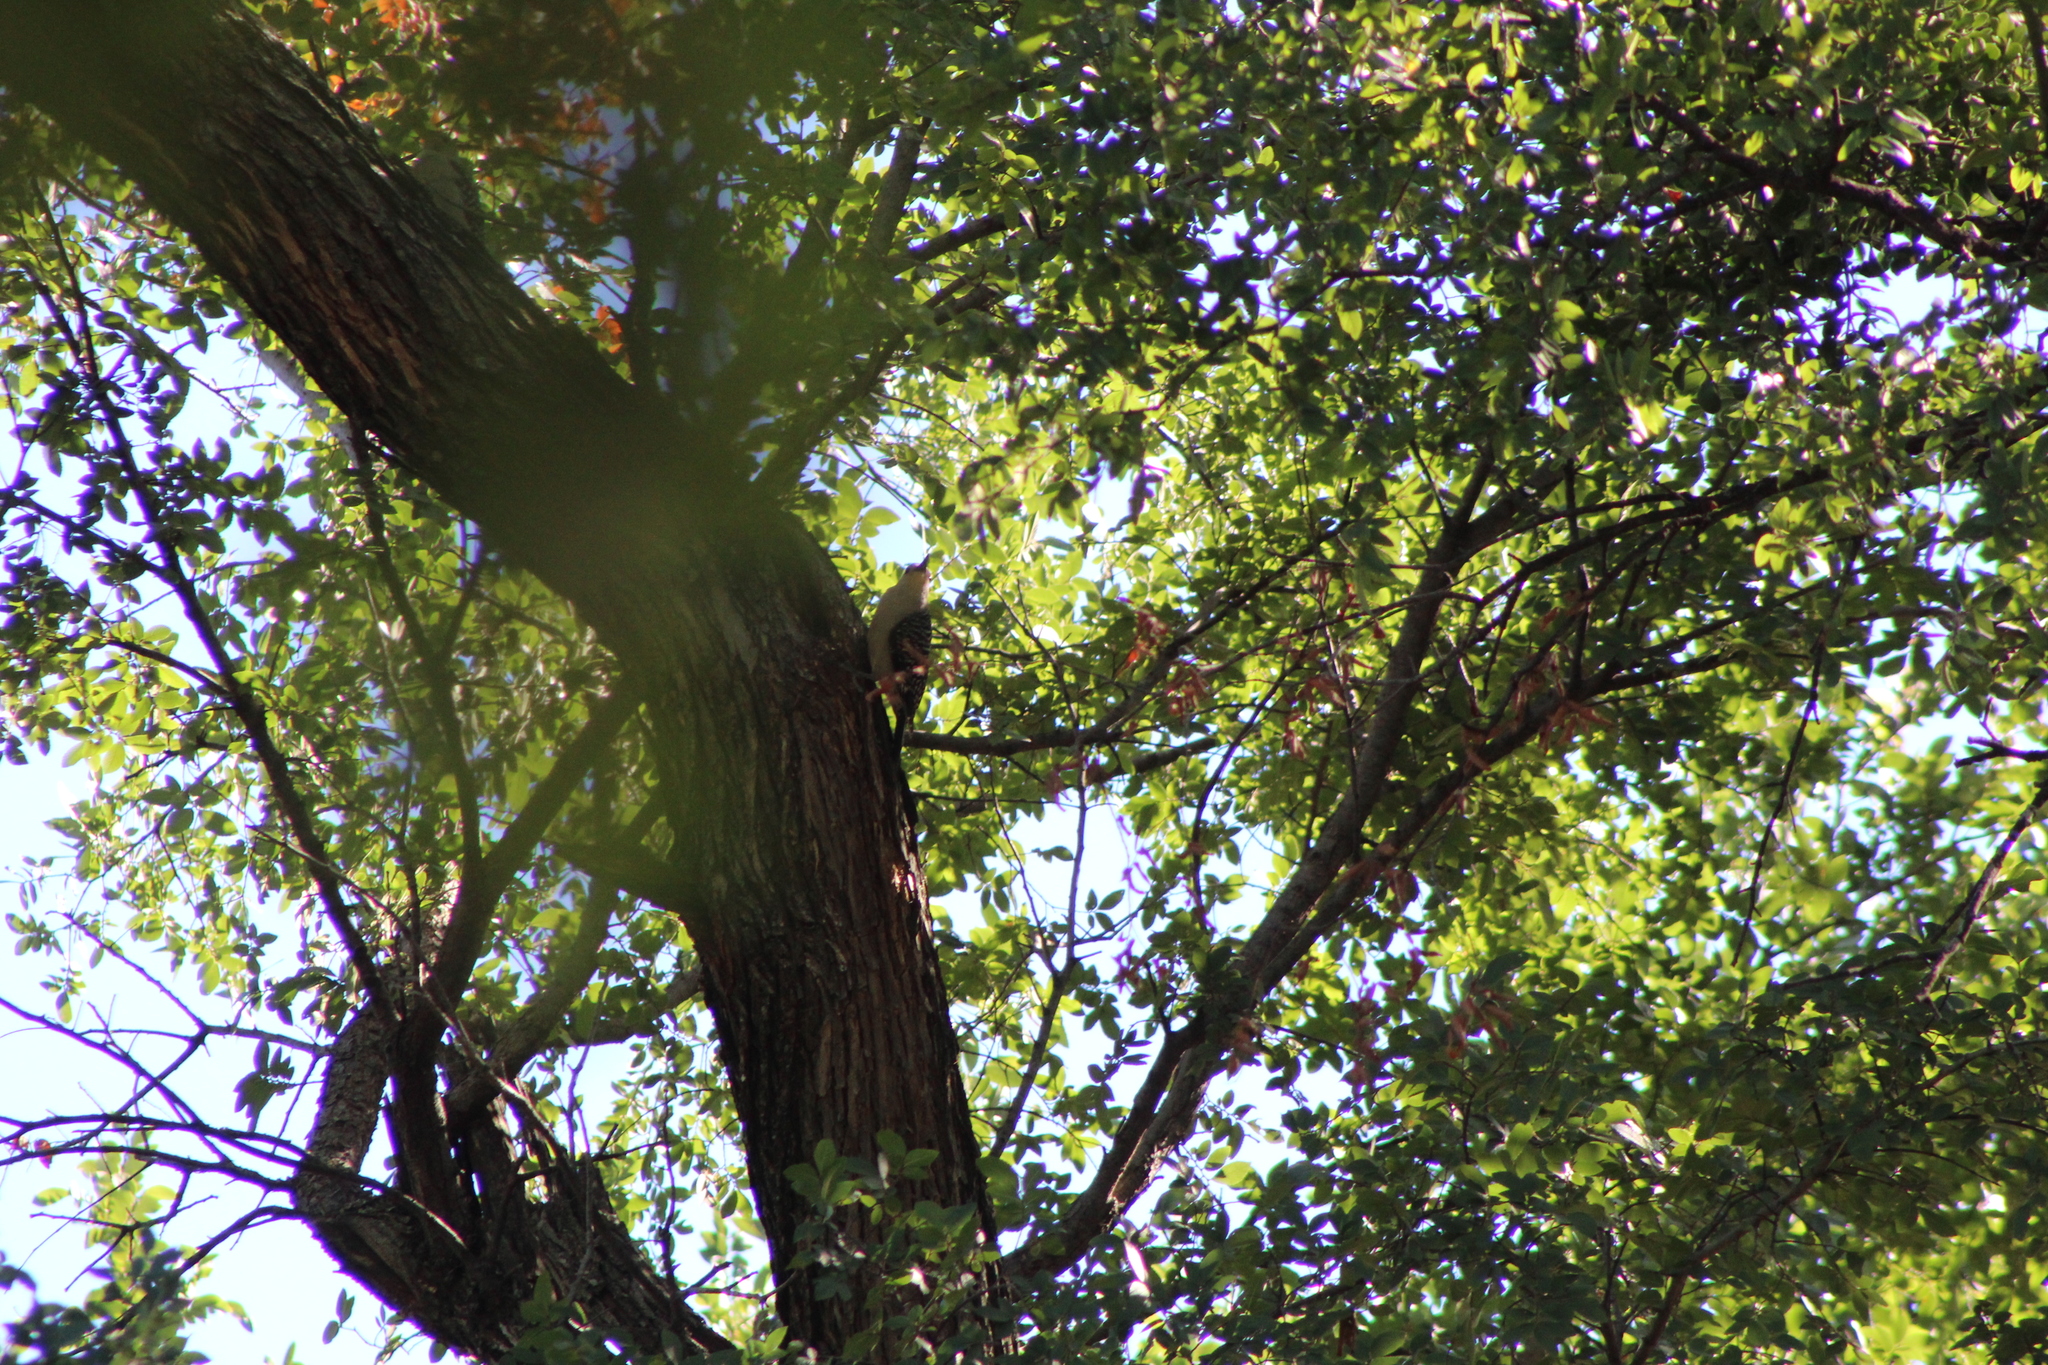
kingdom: Animalia
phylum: Chordata
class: Aves
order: Piciformes
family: Picidae
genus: Melanerpes
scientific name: Melanerpes carolinus
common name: Red-bellied woodpecker
